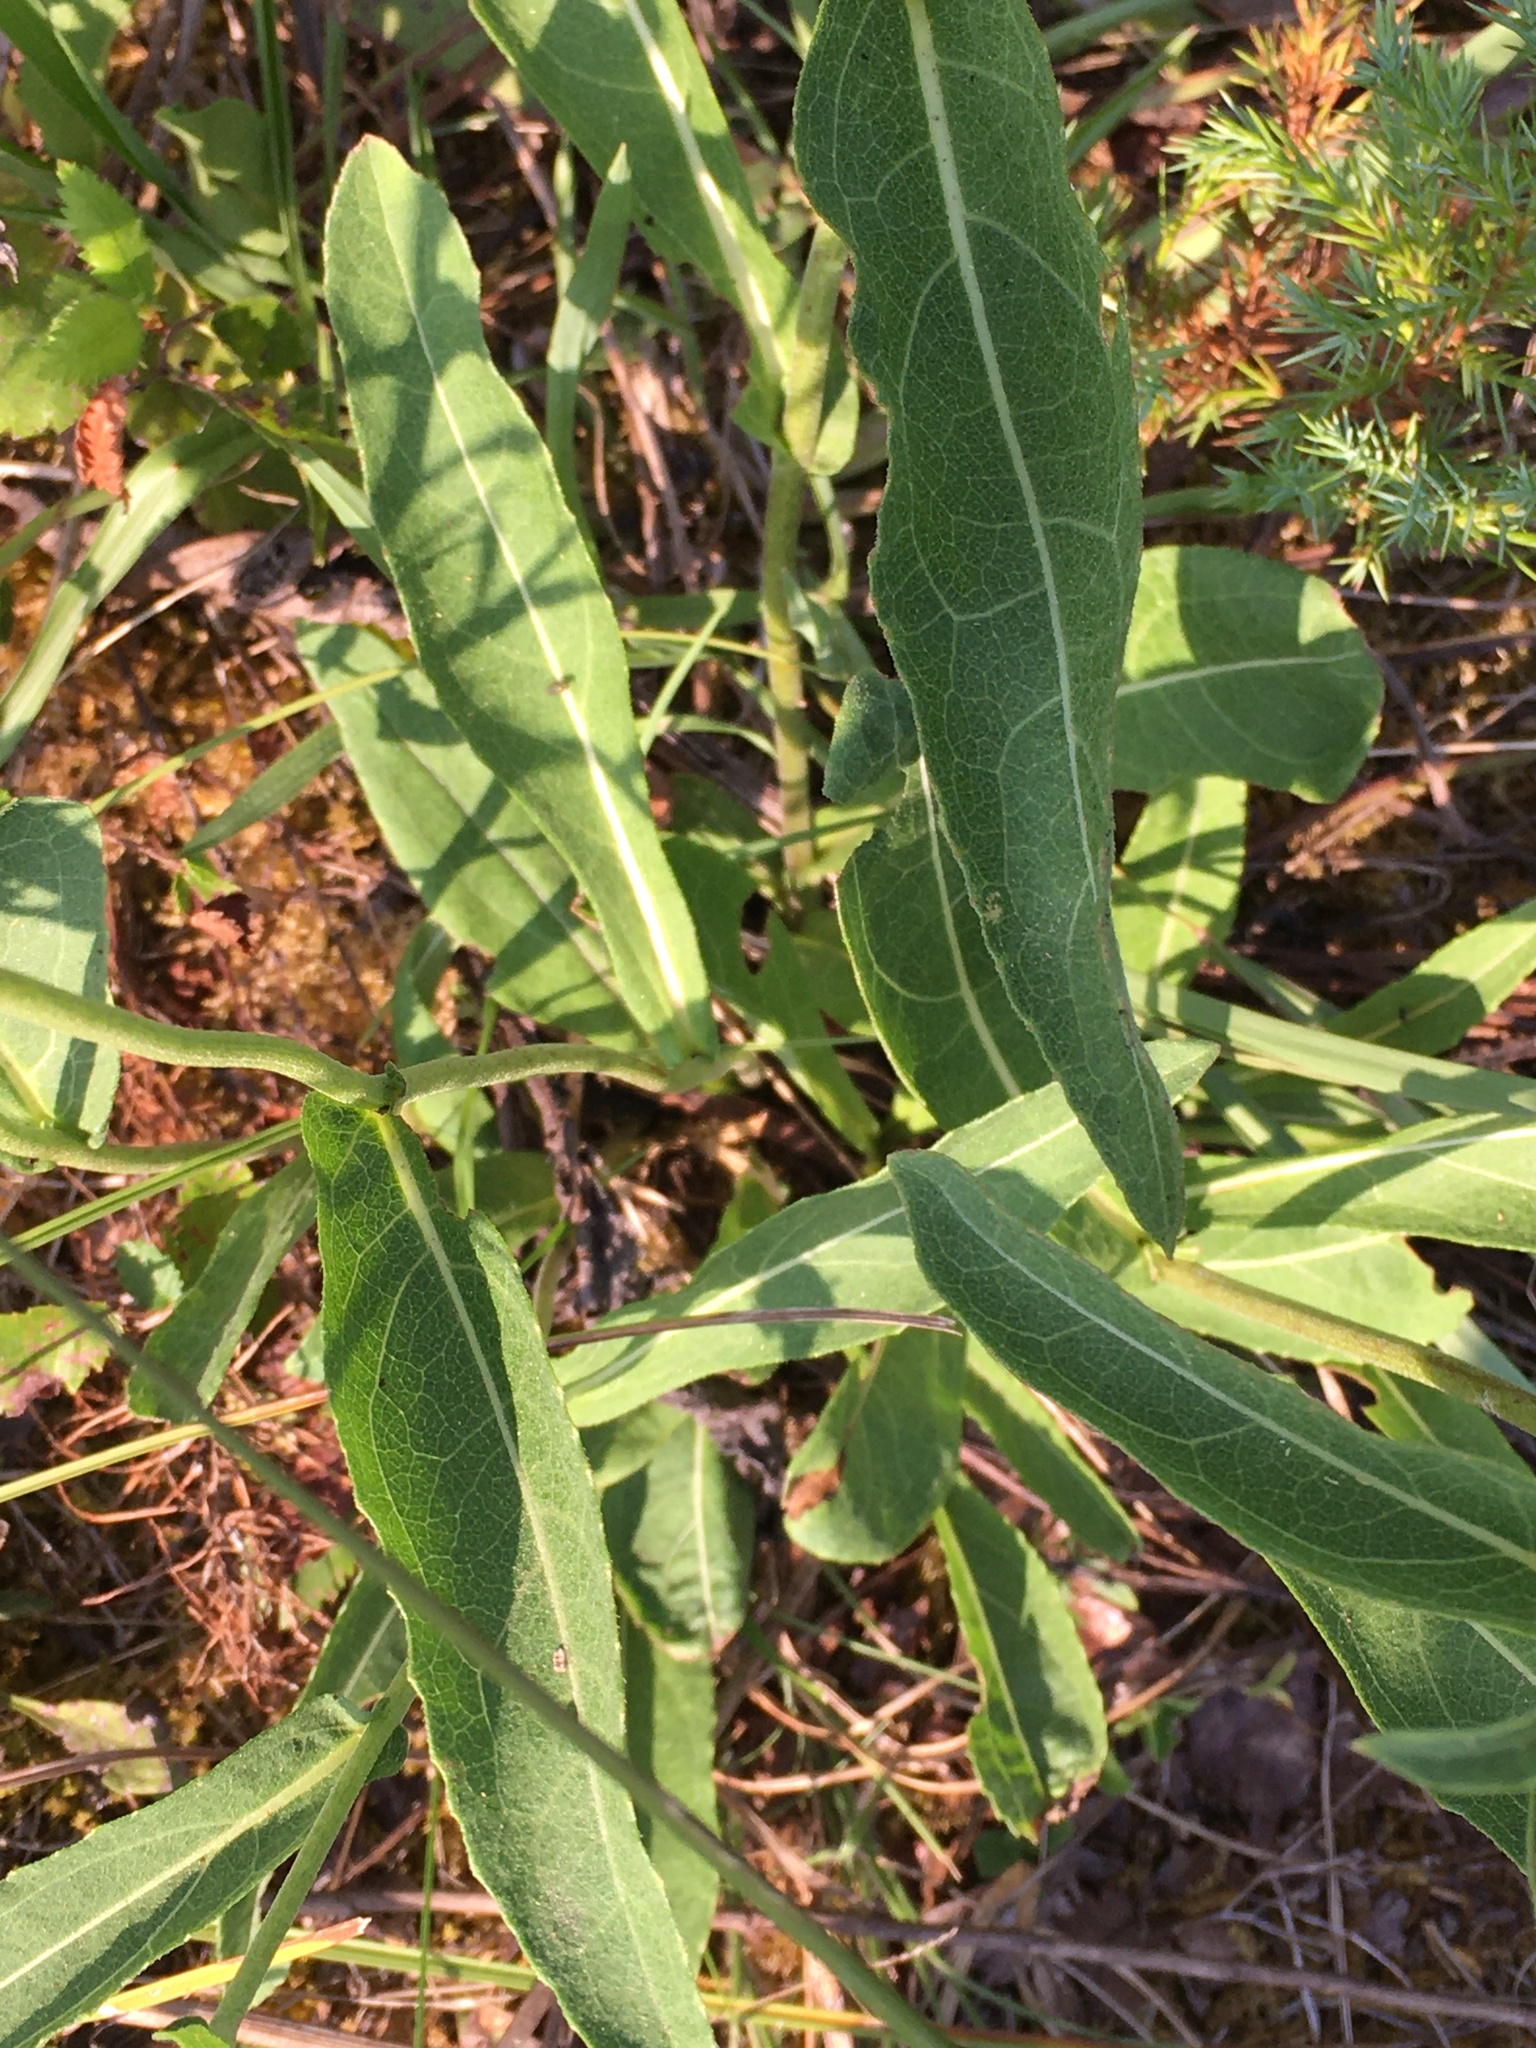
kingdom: Plantae
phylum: Tracheophyta
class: Magnoliopsida
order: Asterales
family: Asteraceae
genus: Parthenium
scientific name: Parthenium integrifolium
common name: American feverfew
